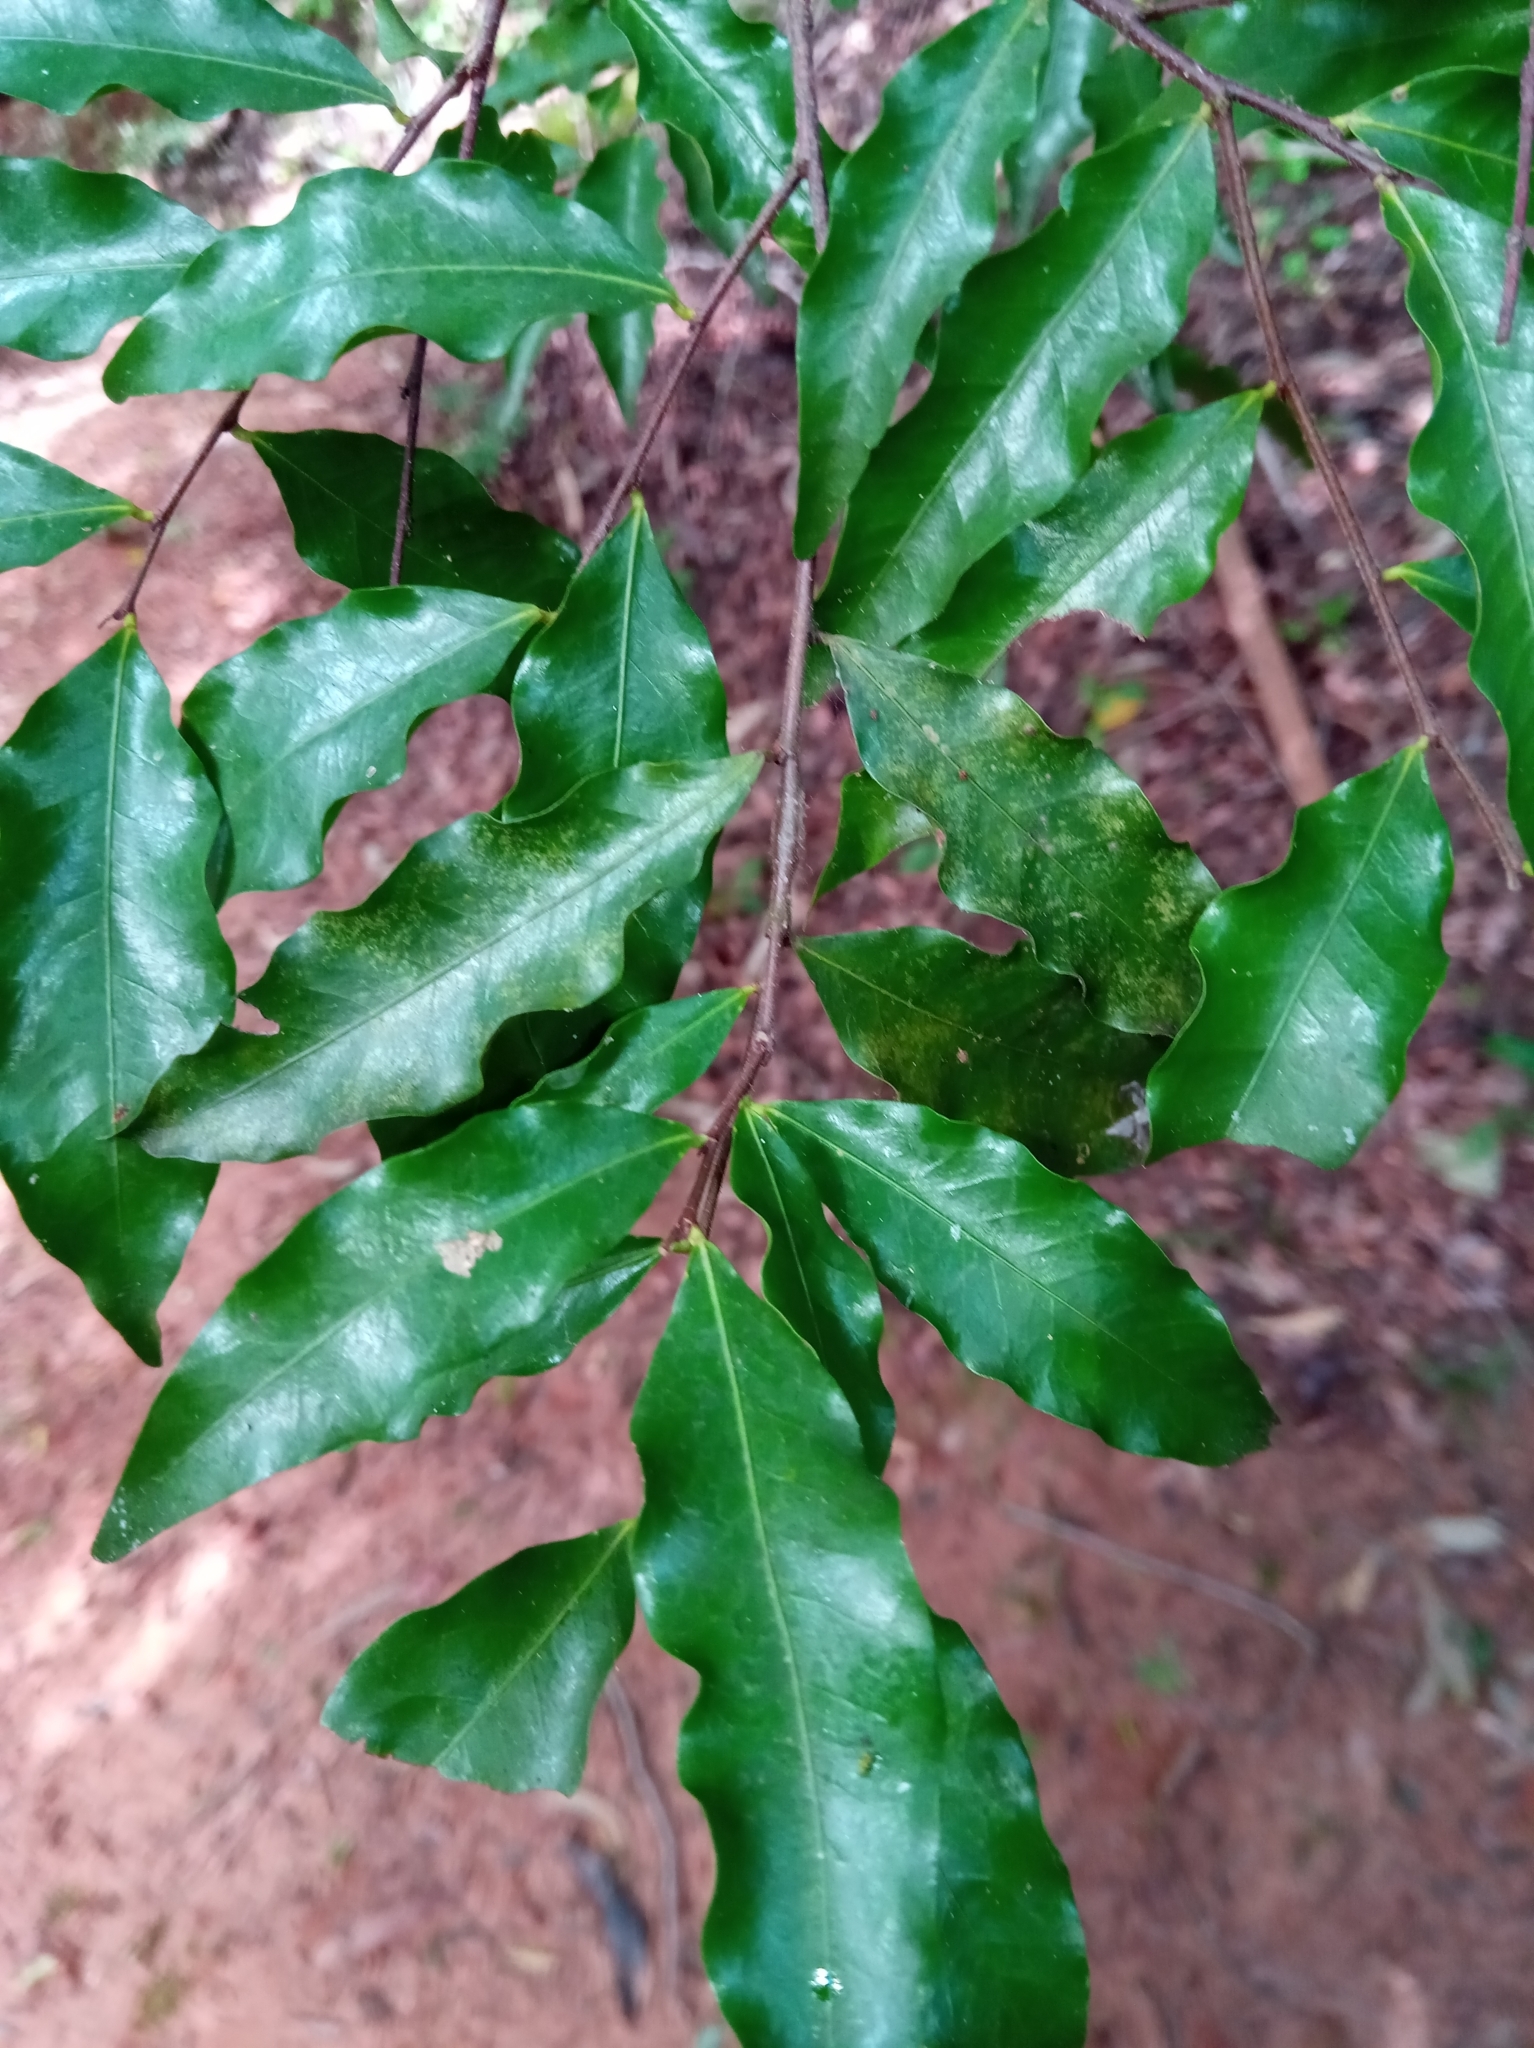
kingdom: Plantae
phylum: Tracheophyta
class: Magnoliopsida
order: Malpighiales
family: Chrysobalanaceae
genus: Grangeria
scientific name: Grangeria porosa
